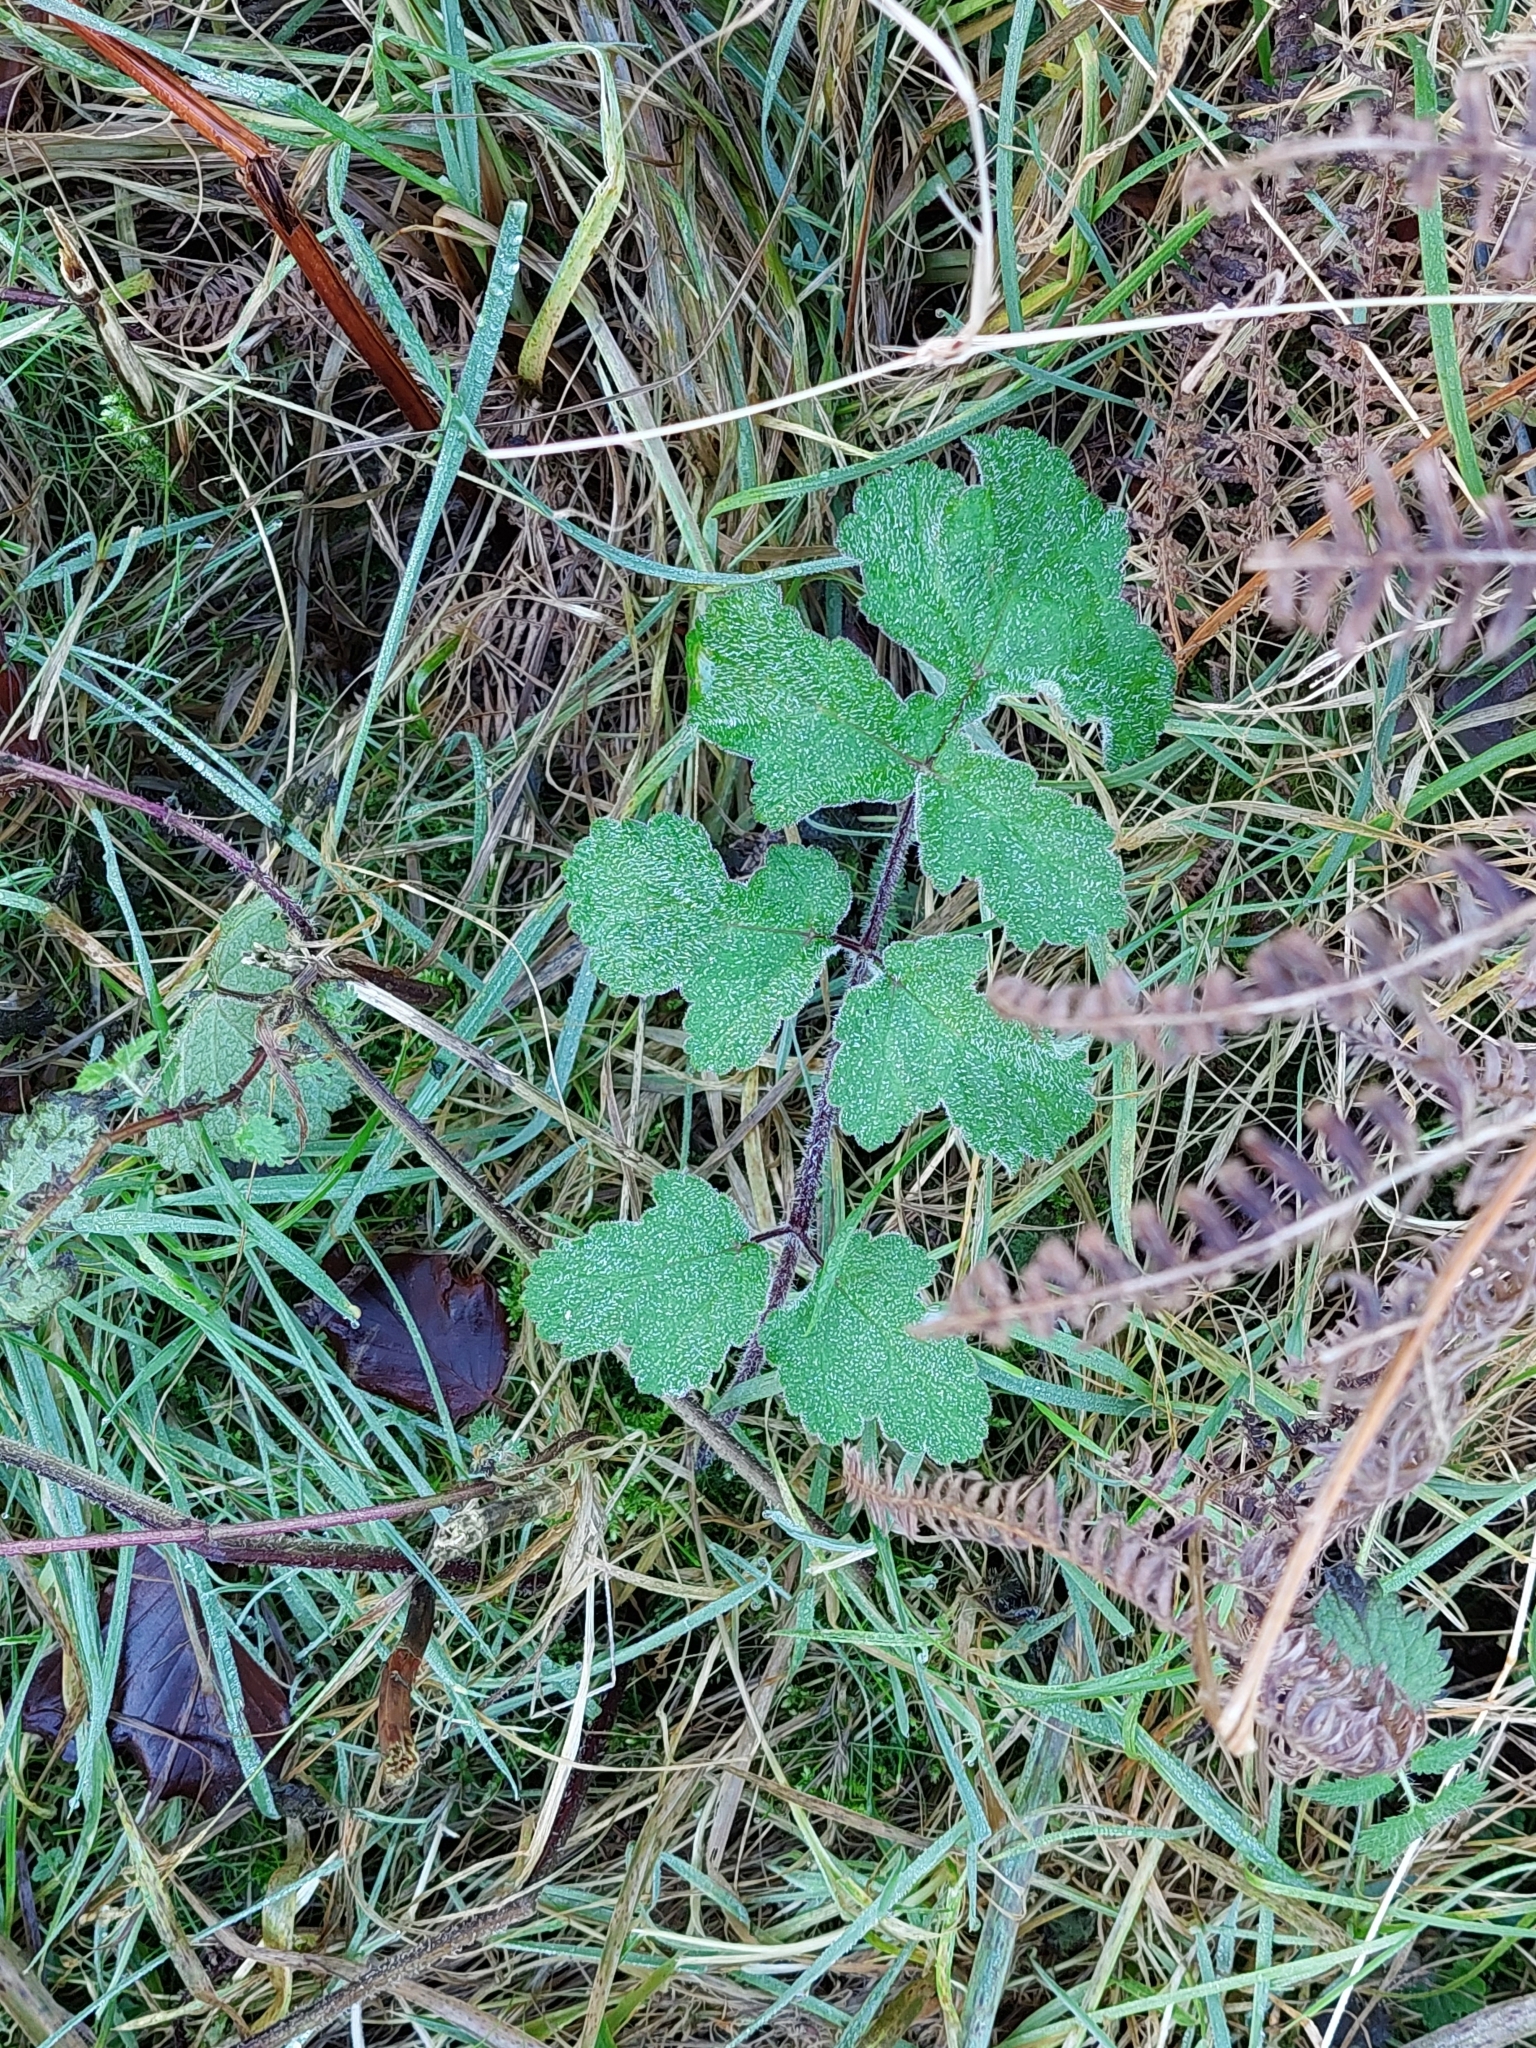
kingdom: Plantae
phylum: Tracheophyta
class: Magnoliopsida
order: Apiales
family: Apiaceae
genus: Heracleum
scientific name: Heracleum sphondylium
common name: Hogweed
